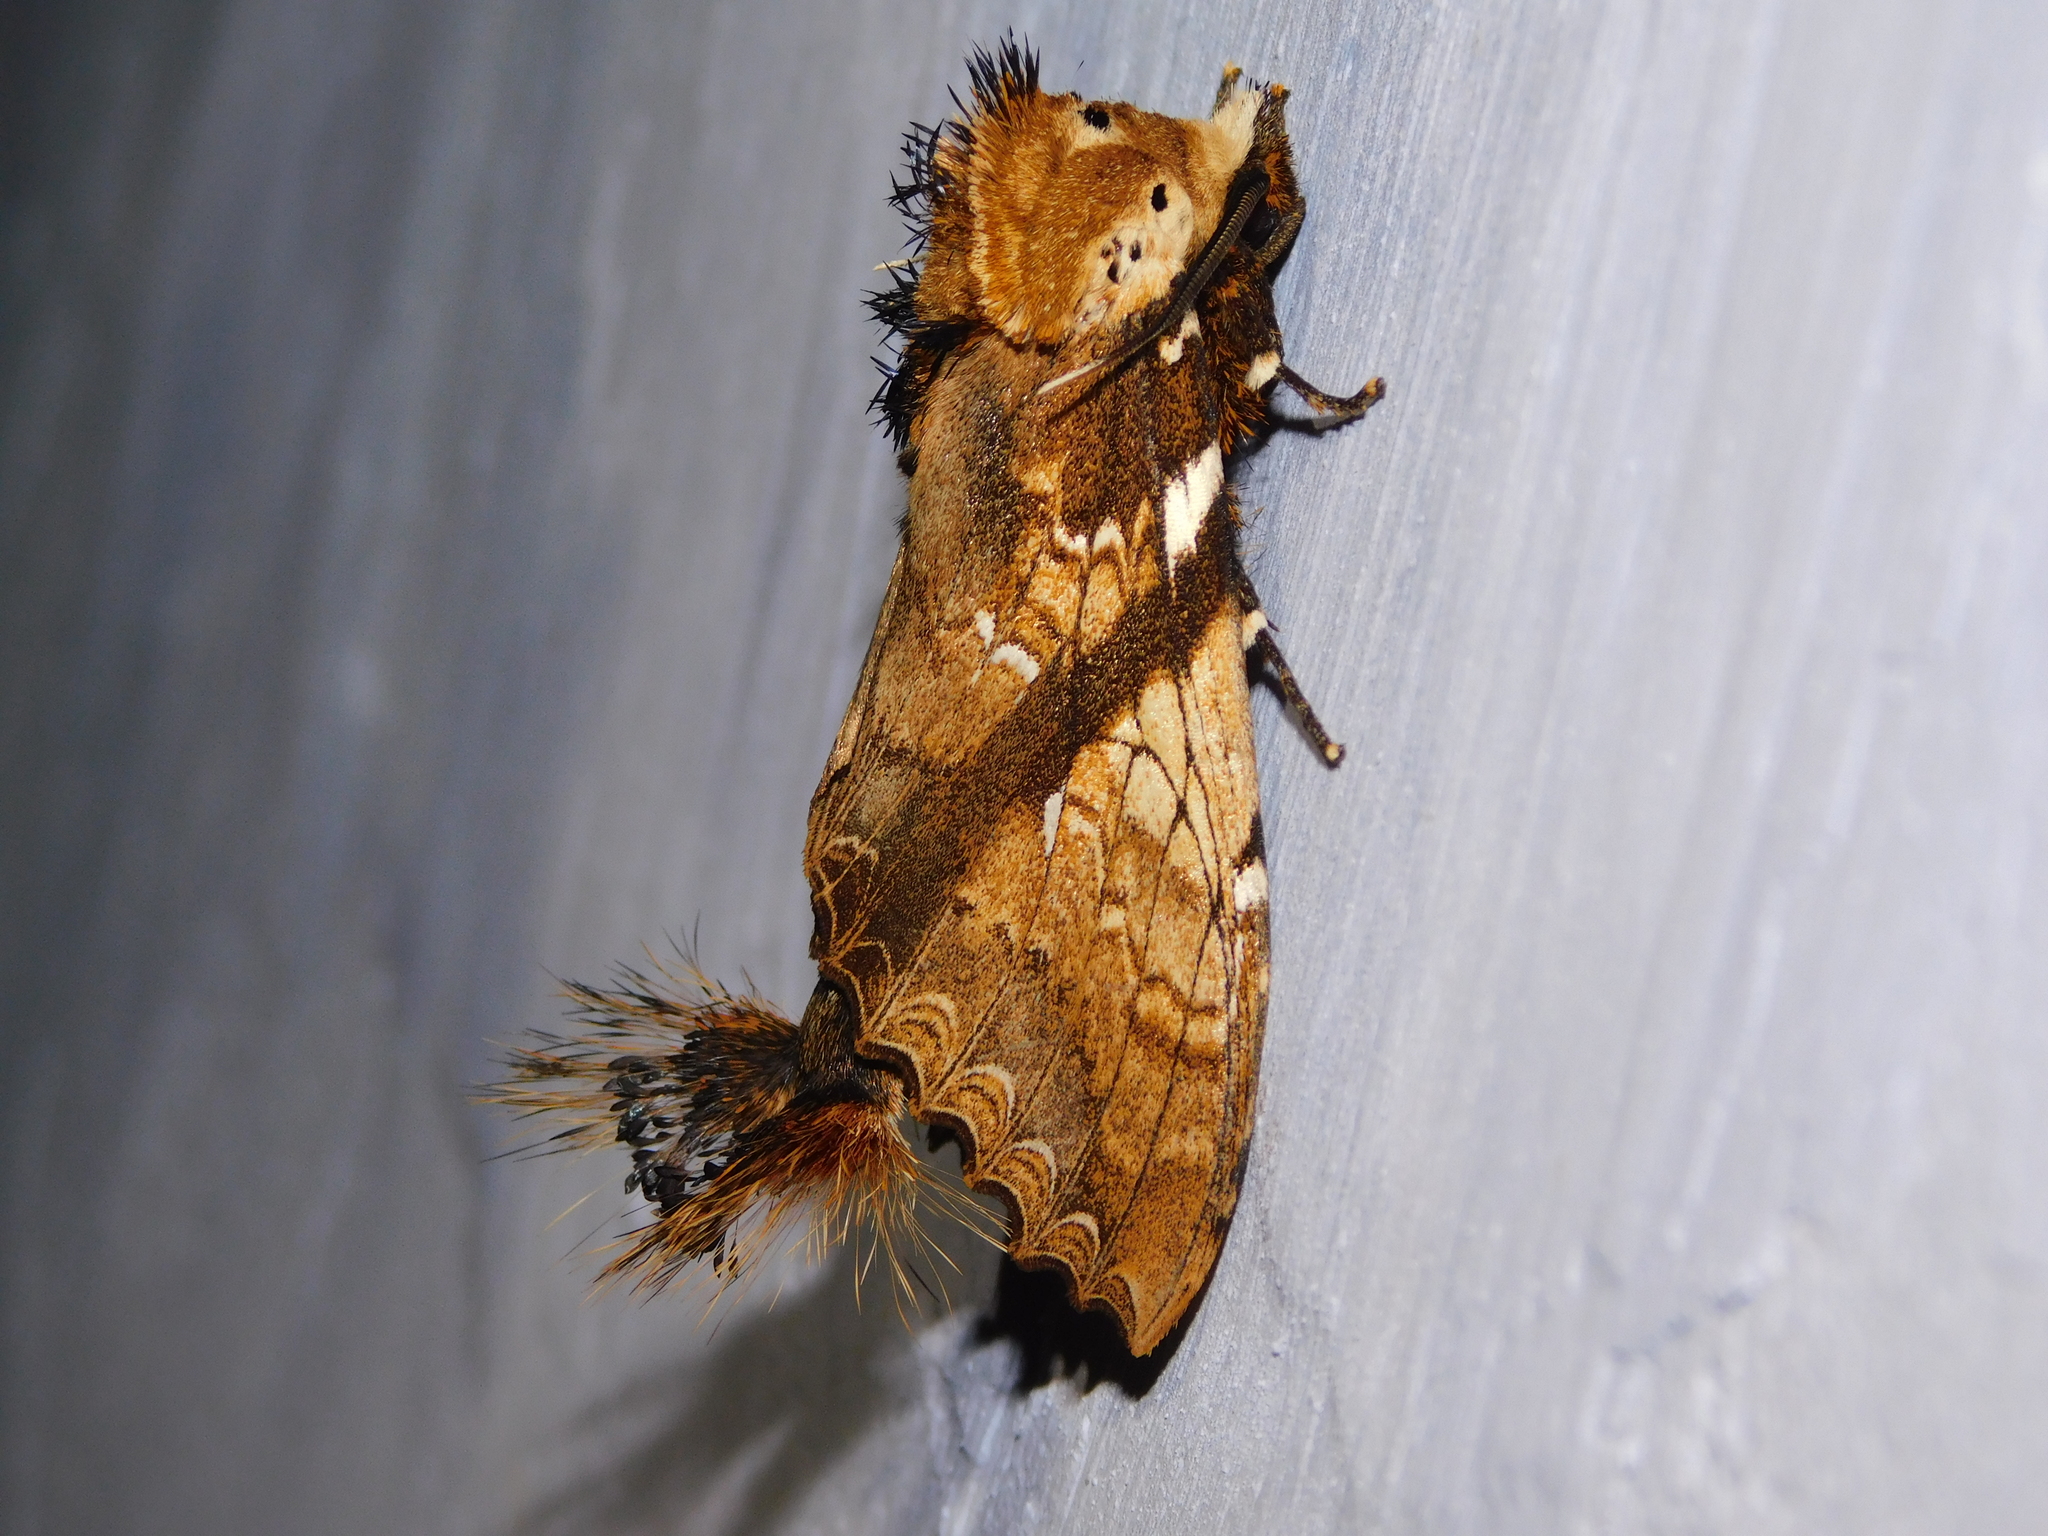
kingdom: Animalia
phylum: Arthropoda
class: Insecta
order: Lepidoptera
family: Notodontidae
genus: Dudusa
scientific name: Dudusa synopla
